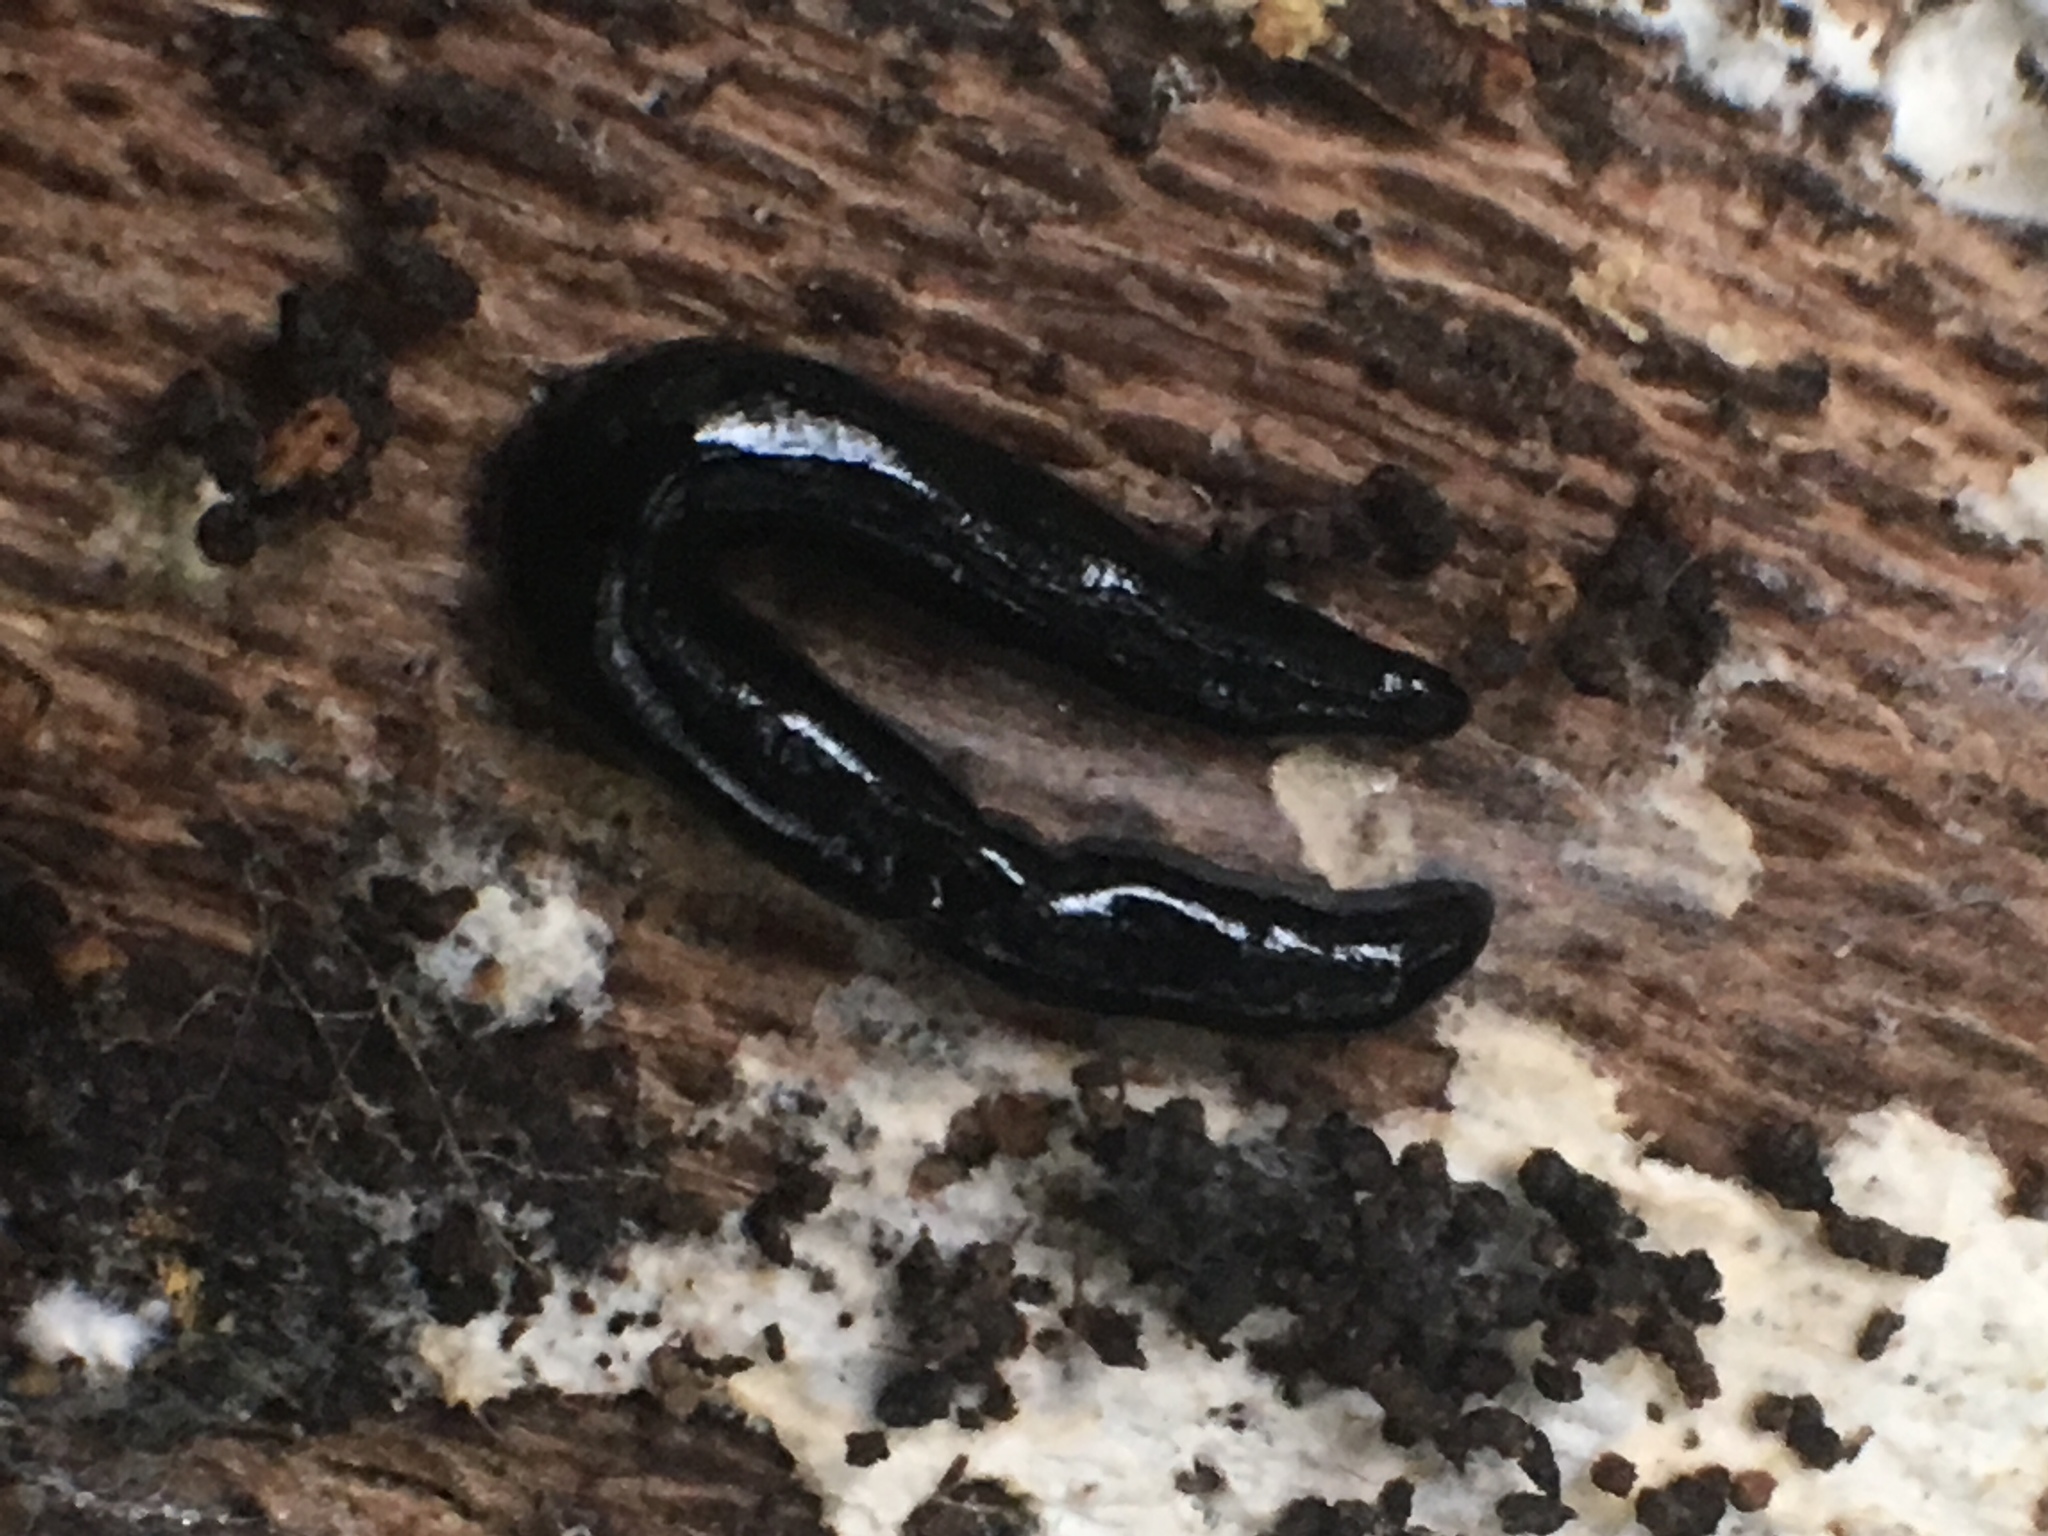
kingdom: Animalia
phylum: Platyhelminthes
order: Tricladida
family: Geoplanidae
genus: Caenoplana
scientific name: Caenoplana coerulea
